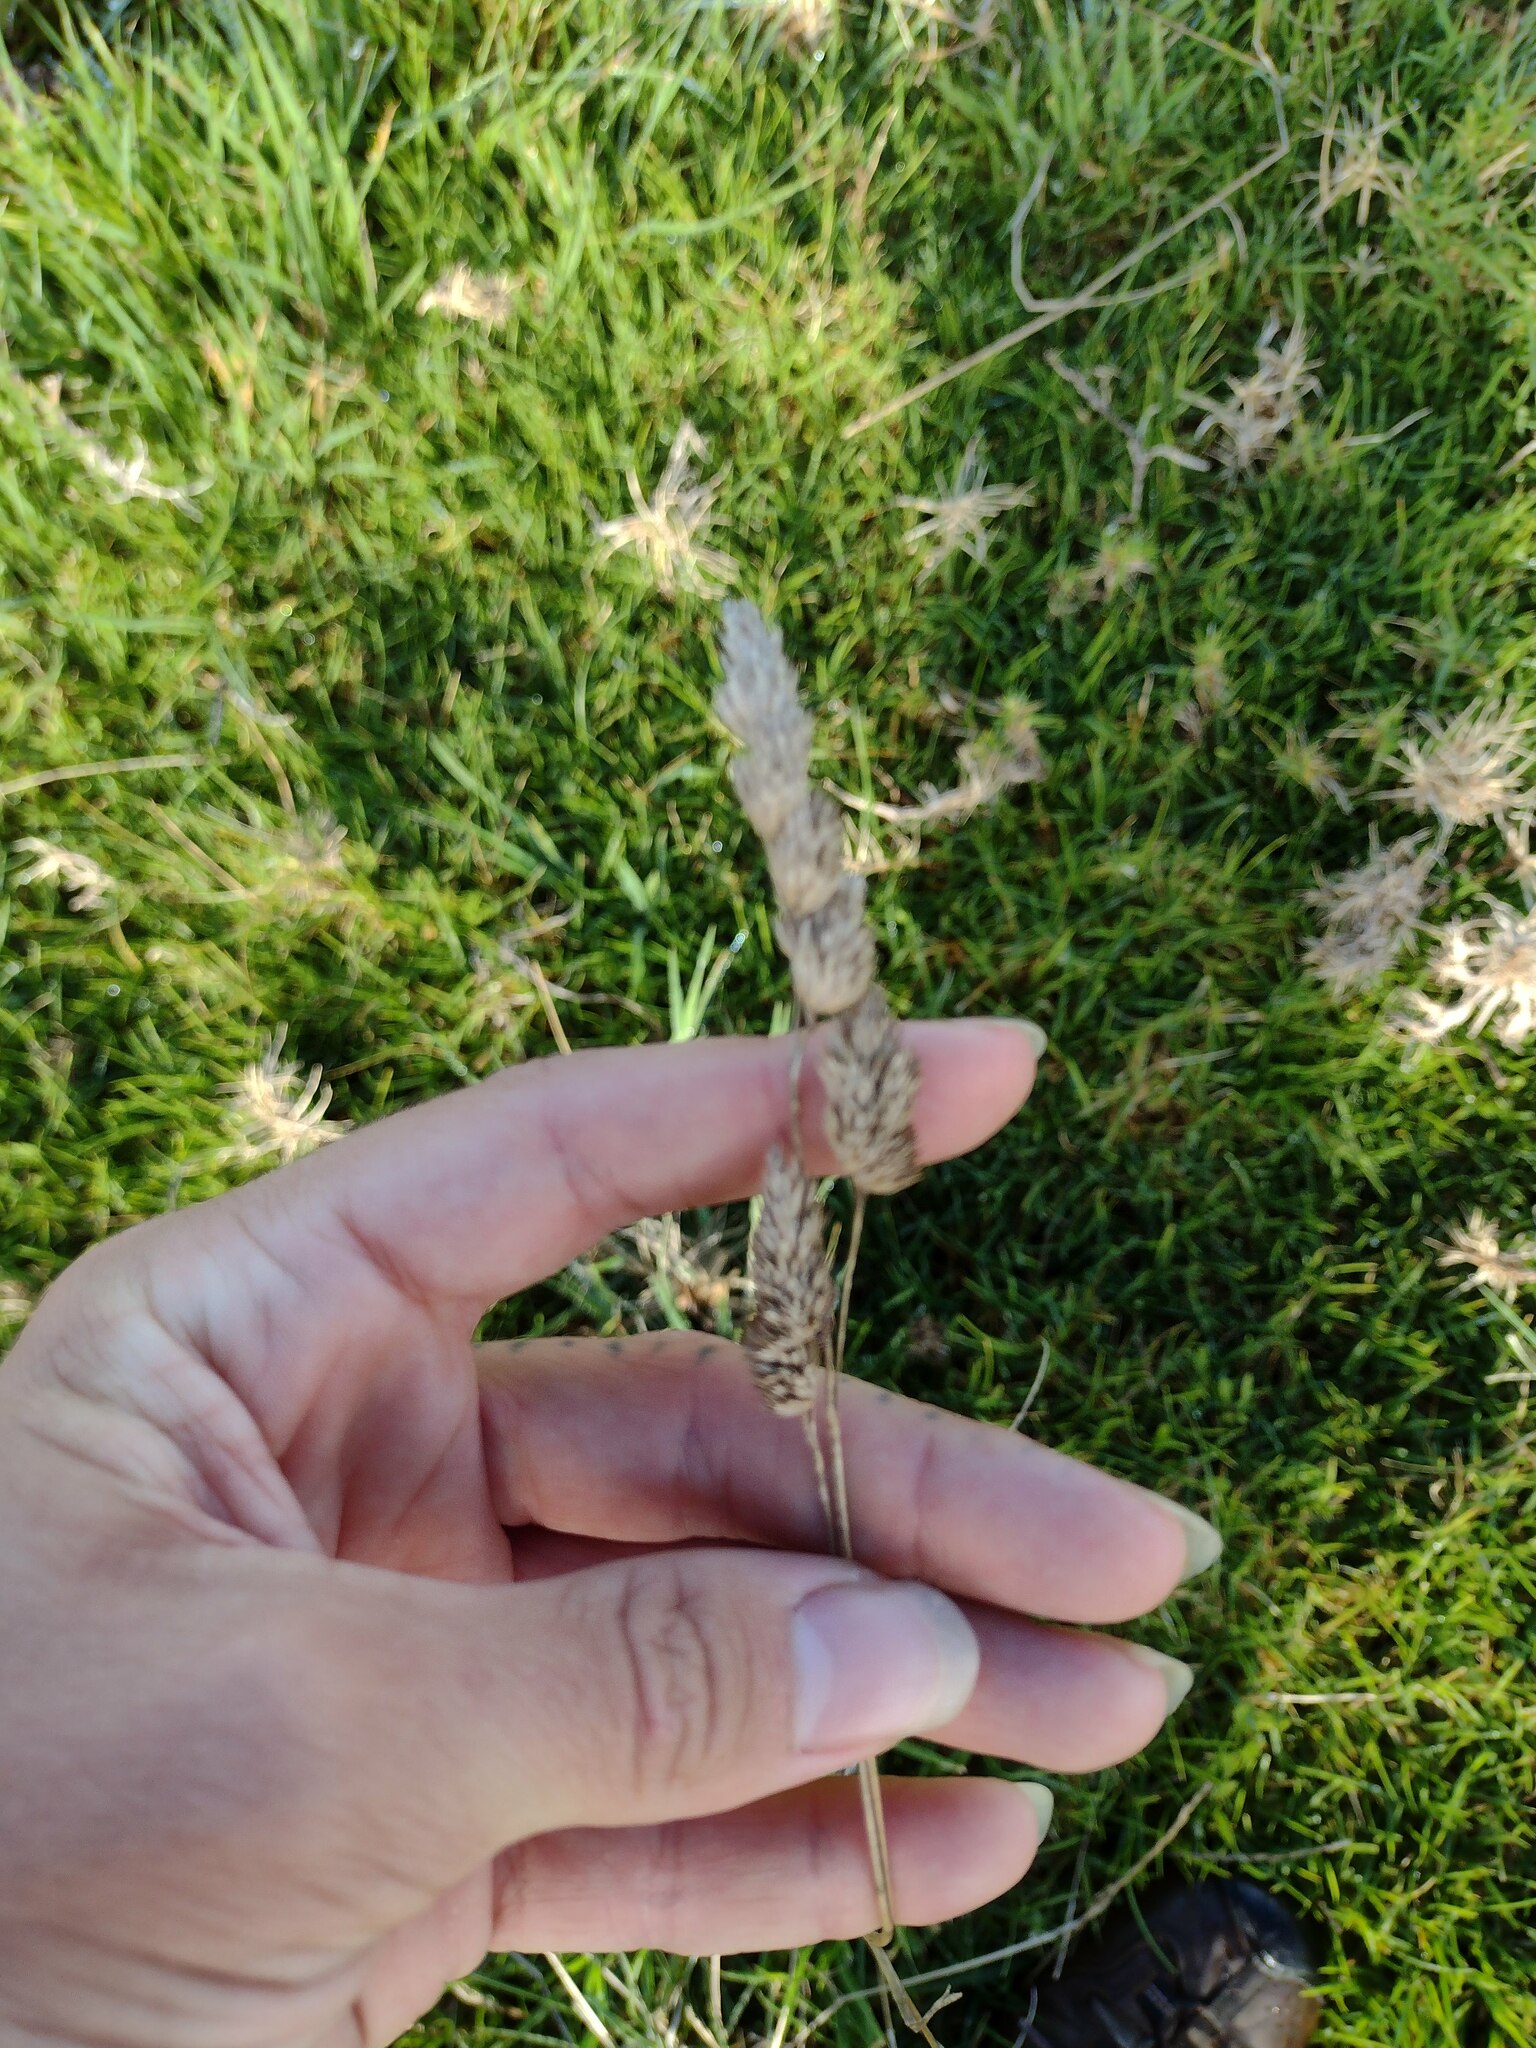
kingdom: Plantae
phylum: Tracheophyta
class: Liliopsida
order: Poales
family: Poaceae
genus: Dactylis
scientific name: Dactylis glomerata
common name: Orchardgrass
